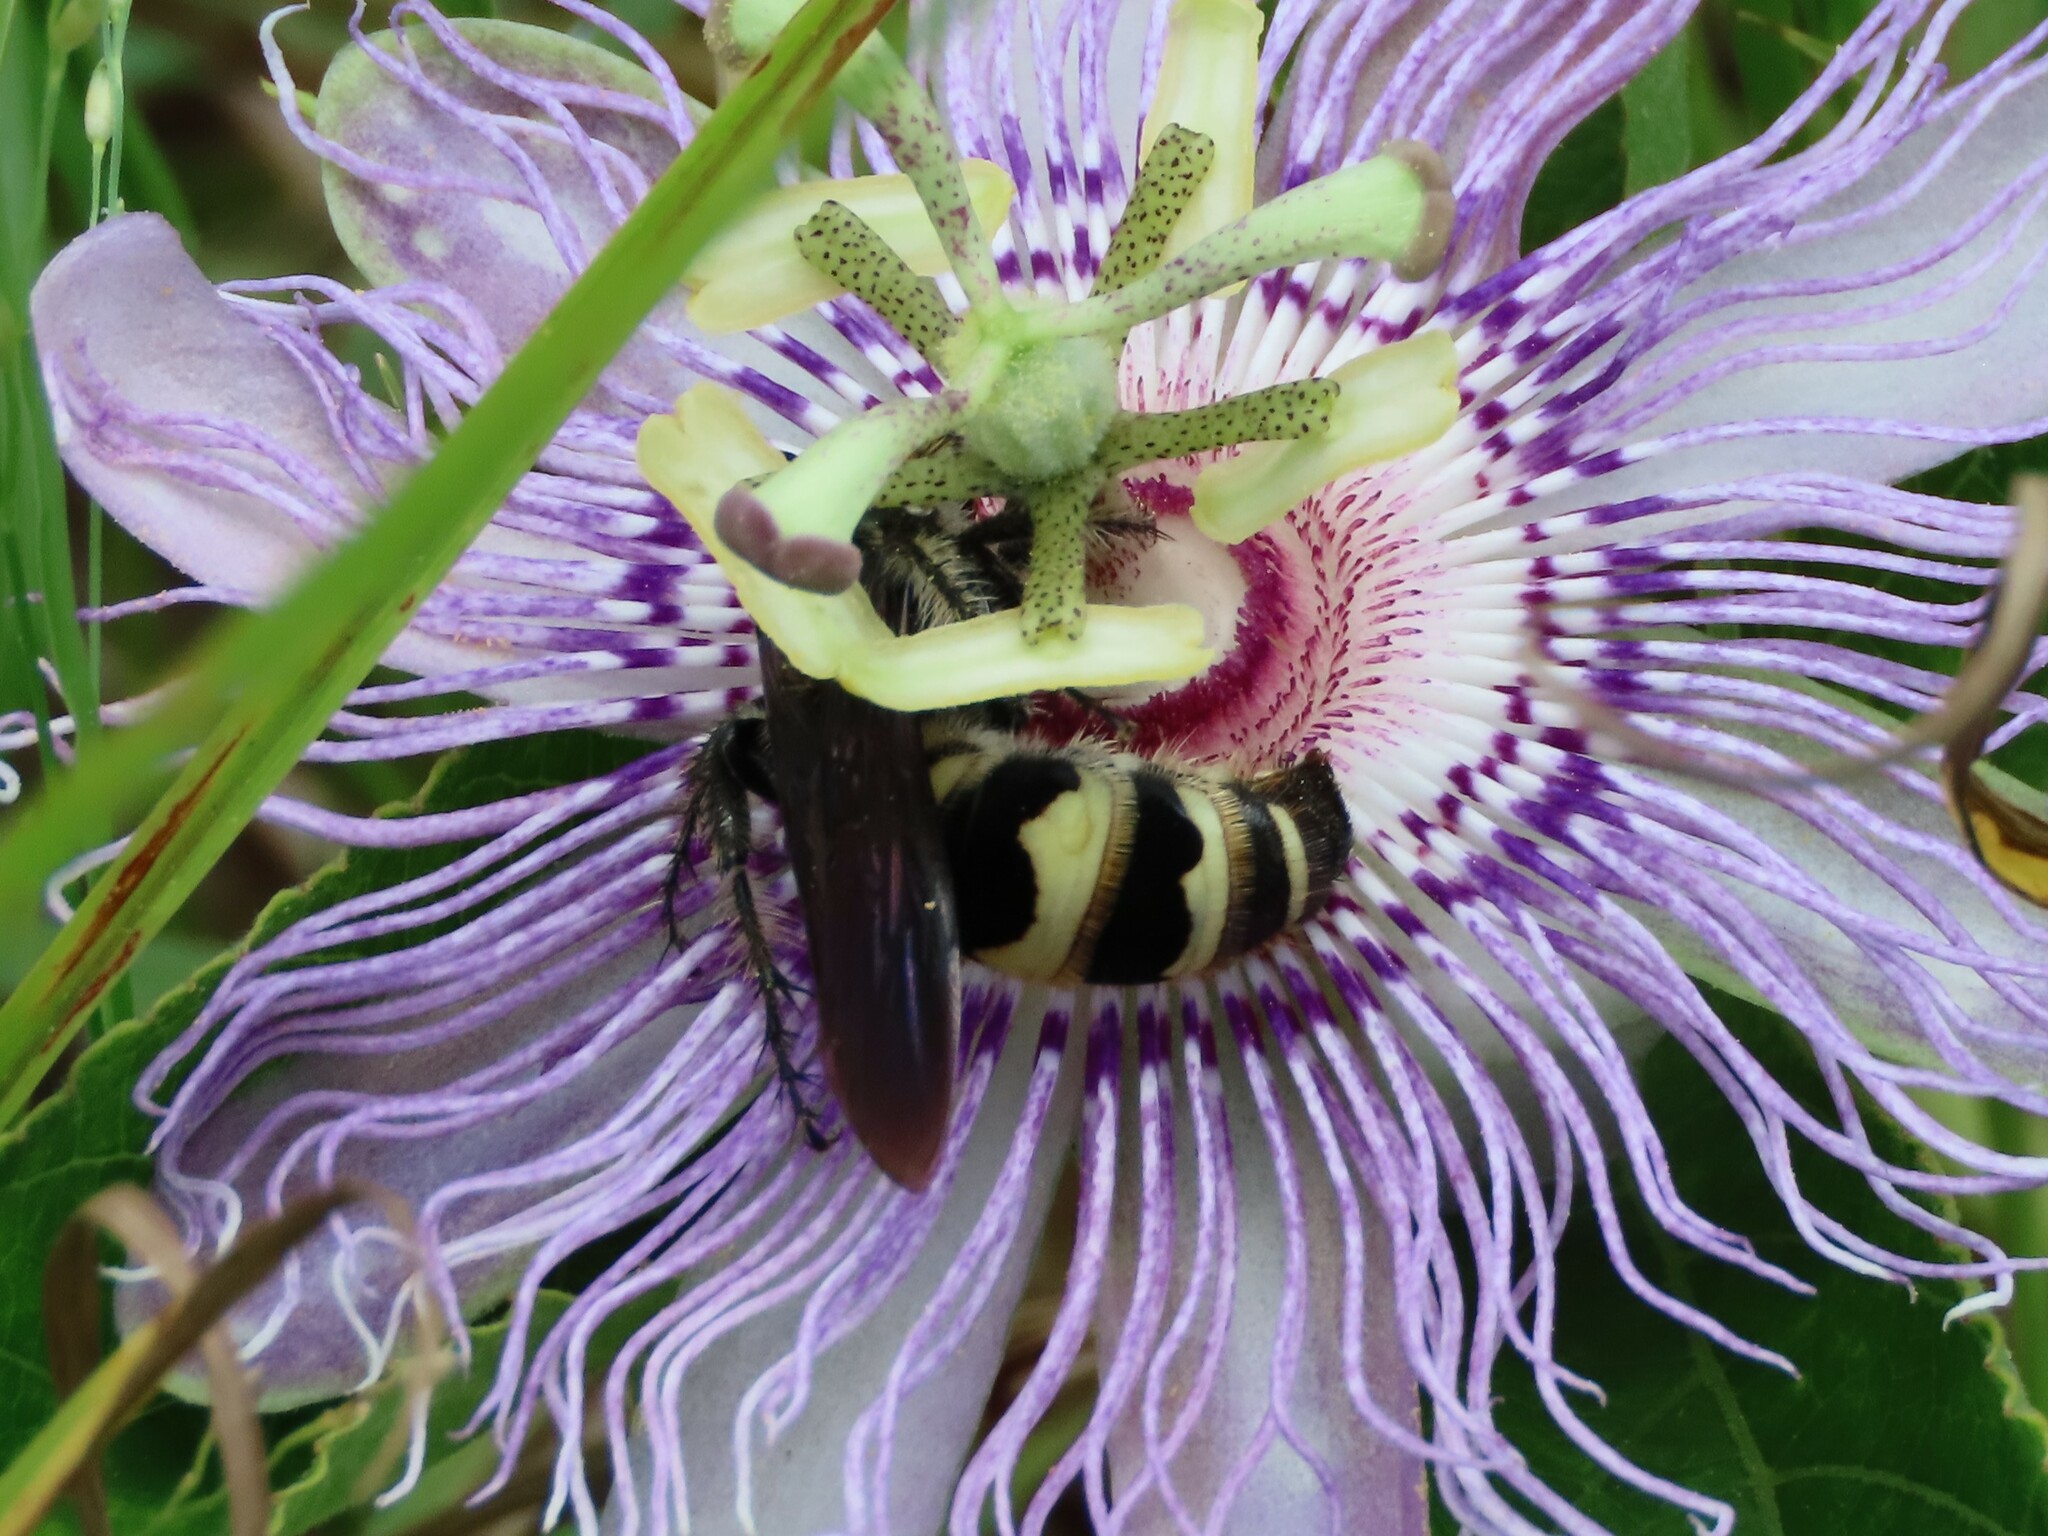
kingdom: Animalia
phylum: Arthropoda
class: Insecta
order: Hymenoptera
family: Scoliidae
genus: Dielis
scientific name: Dielis
